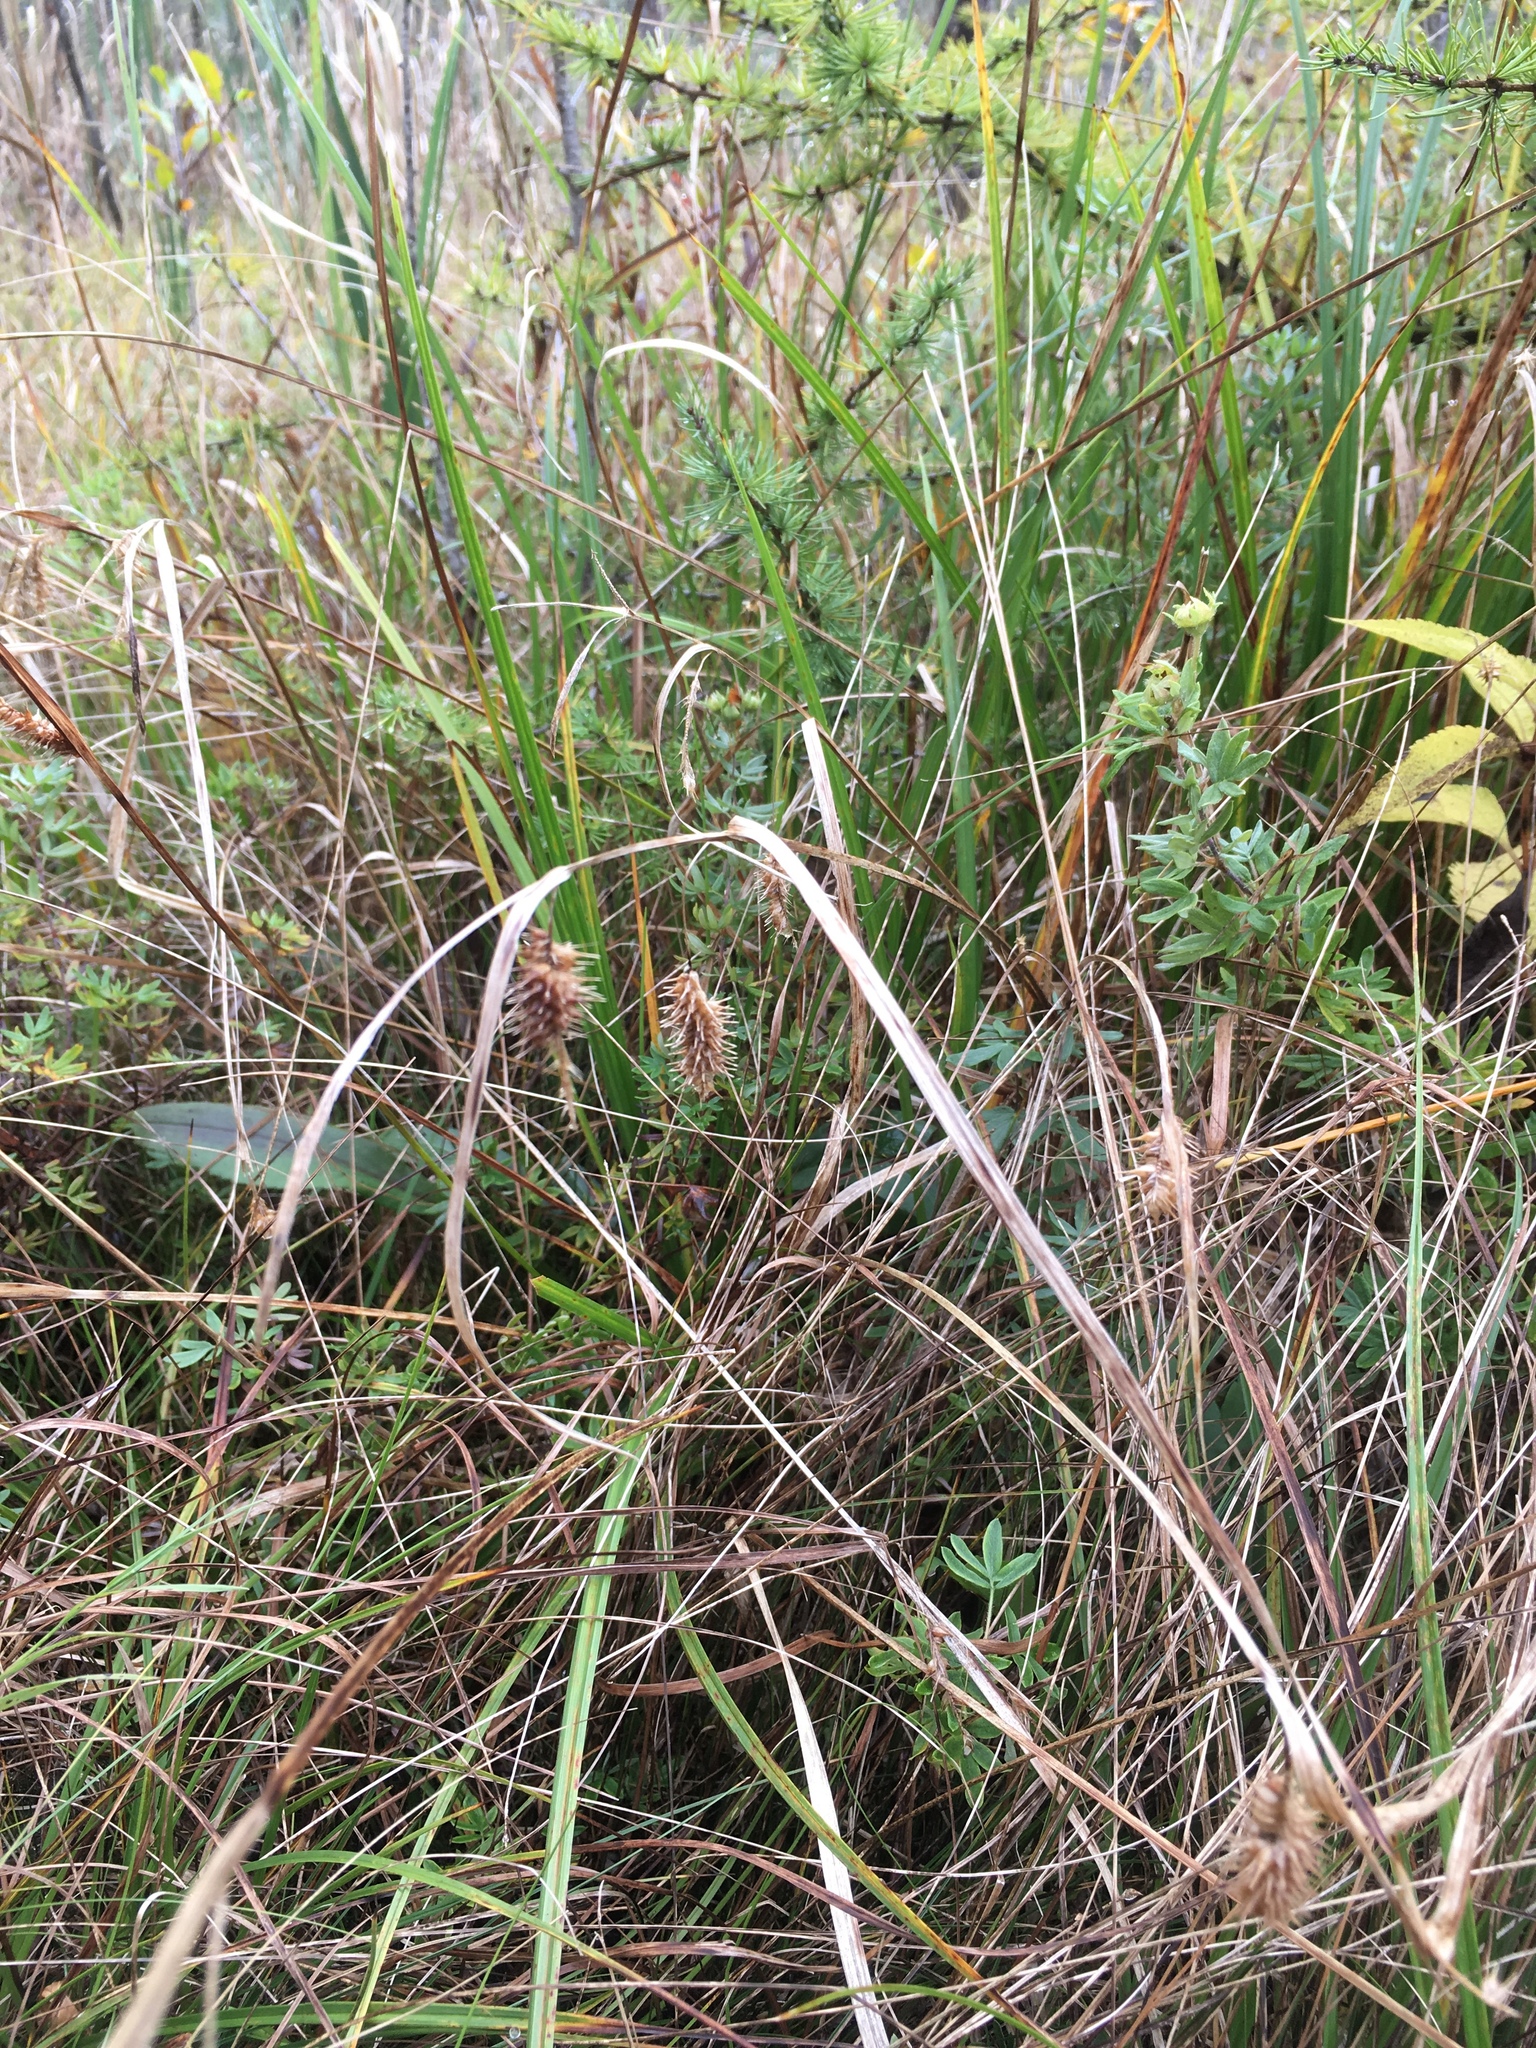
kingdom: Plantae
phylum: Tracheophyta
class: Liliopsida
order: Poales
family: Cyperaceae
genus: Carex
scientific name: Carex hystericina
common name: Bottlebrush sedge
